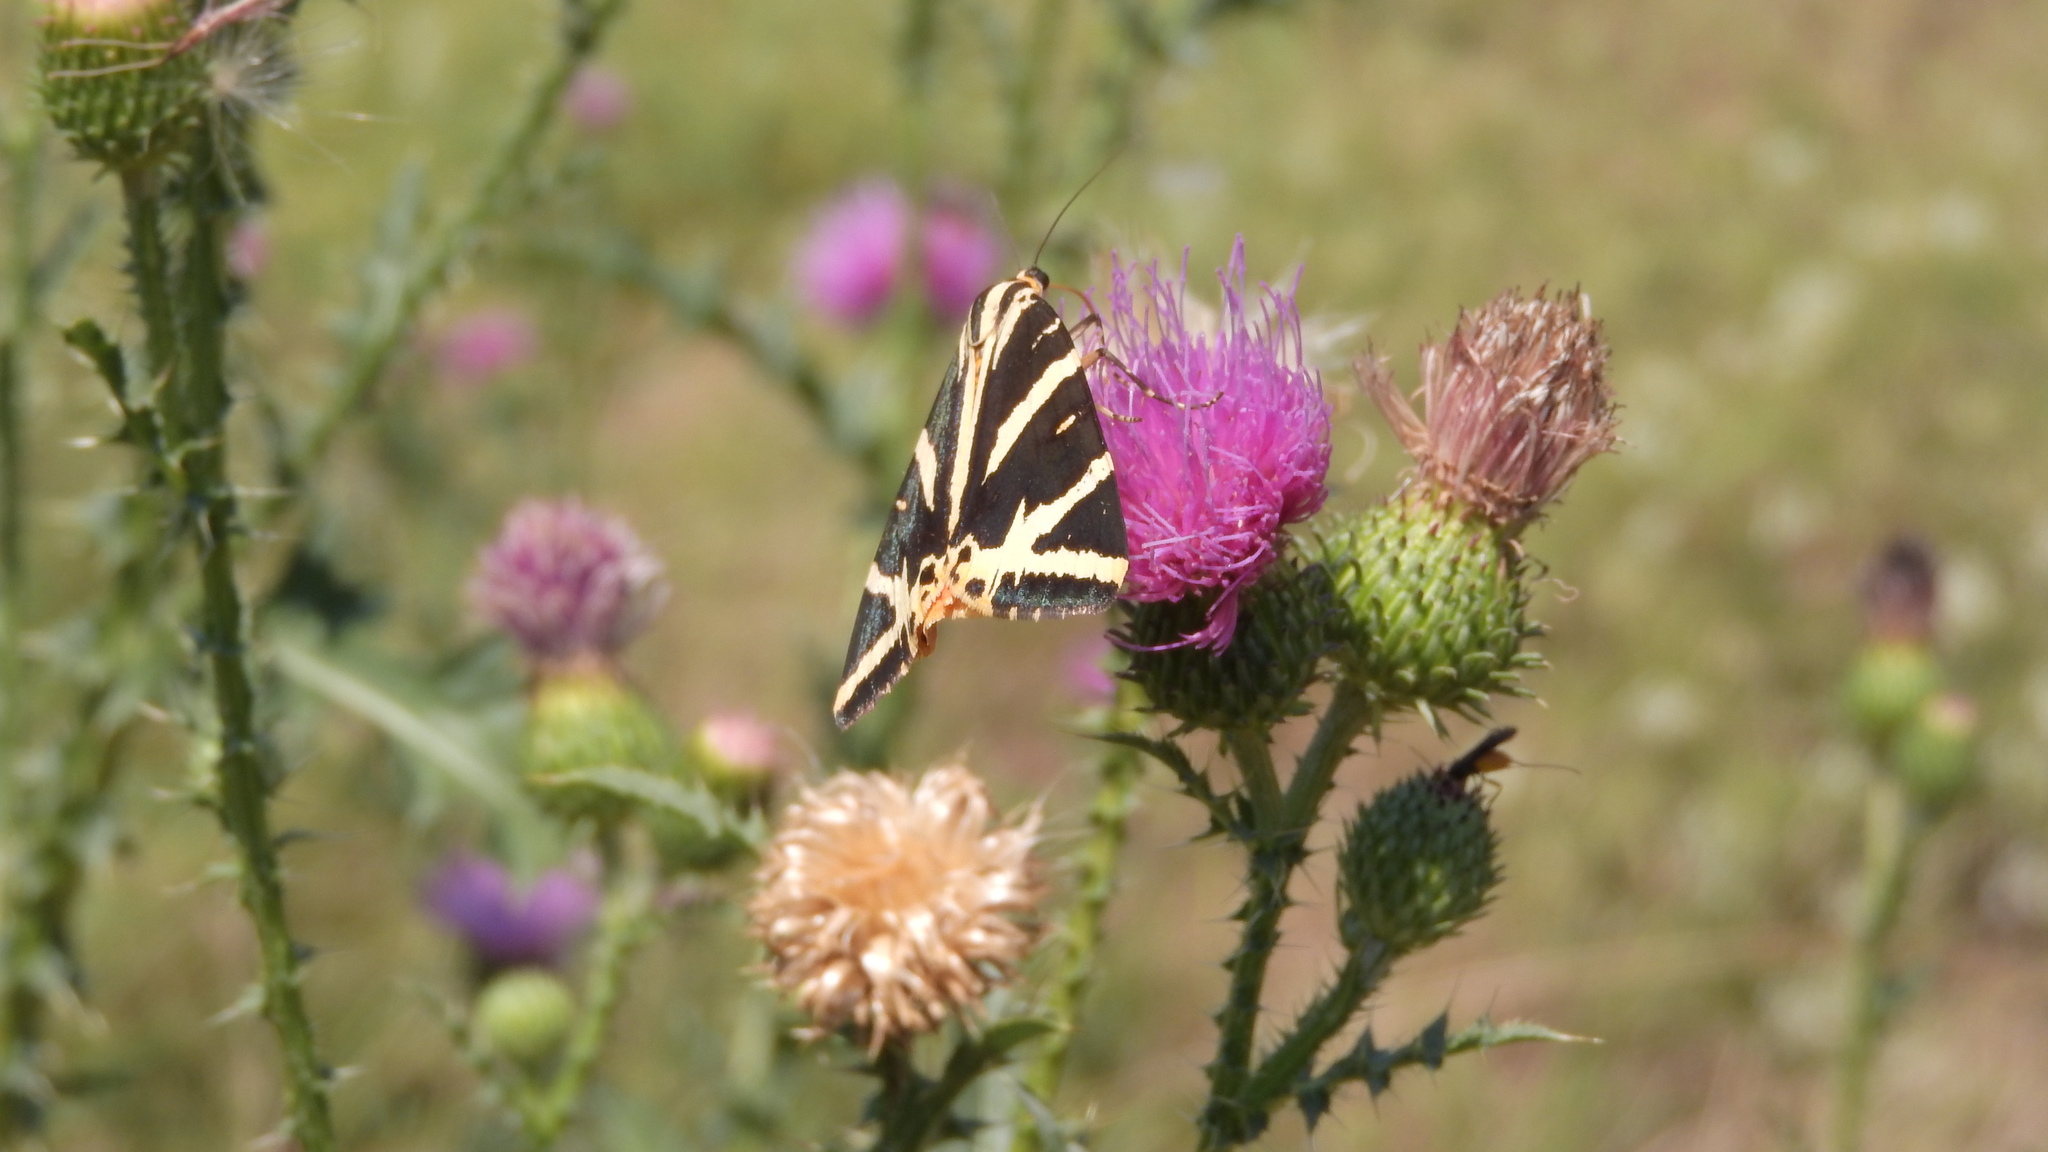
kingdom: Animalia
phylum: Arthropoda
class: Insecta
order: Lepidoptera
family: Erebidae
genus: Euplagia
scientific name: Euplagia quadripunctaria
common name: Jersey tiger
